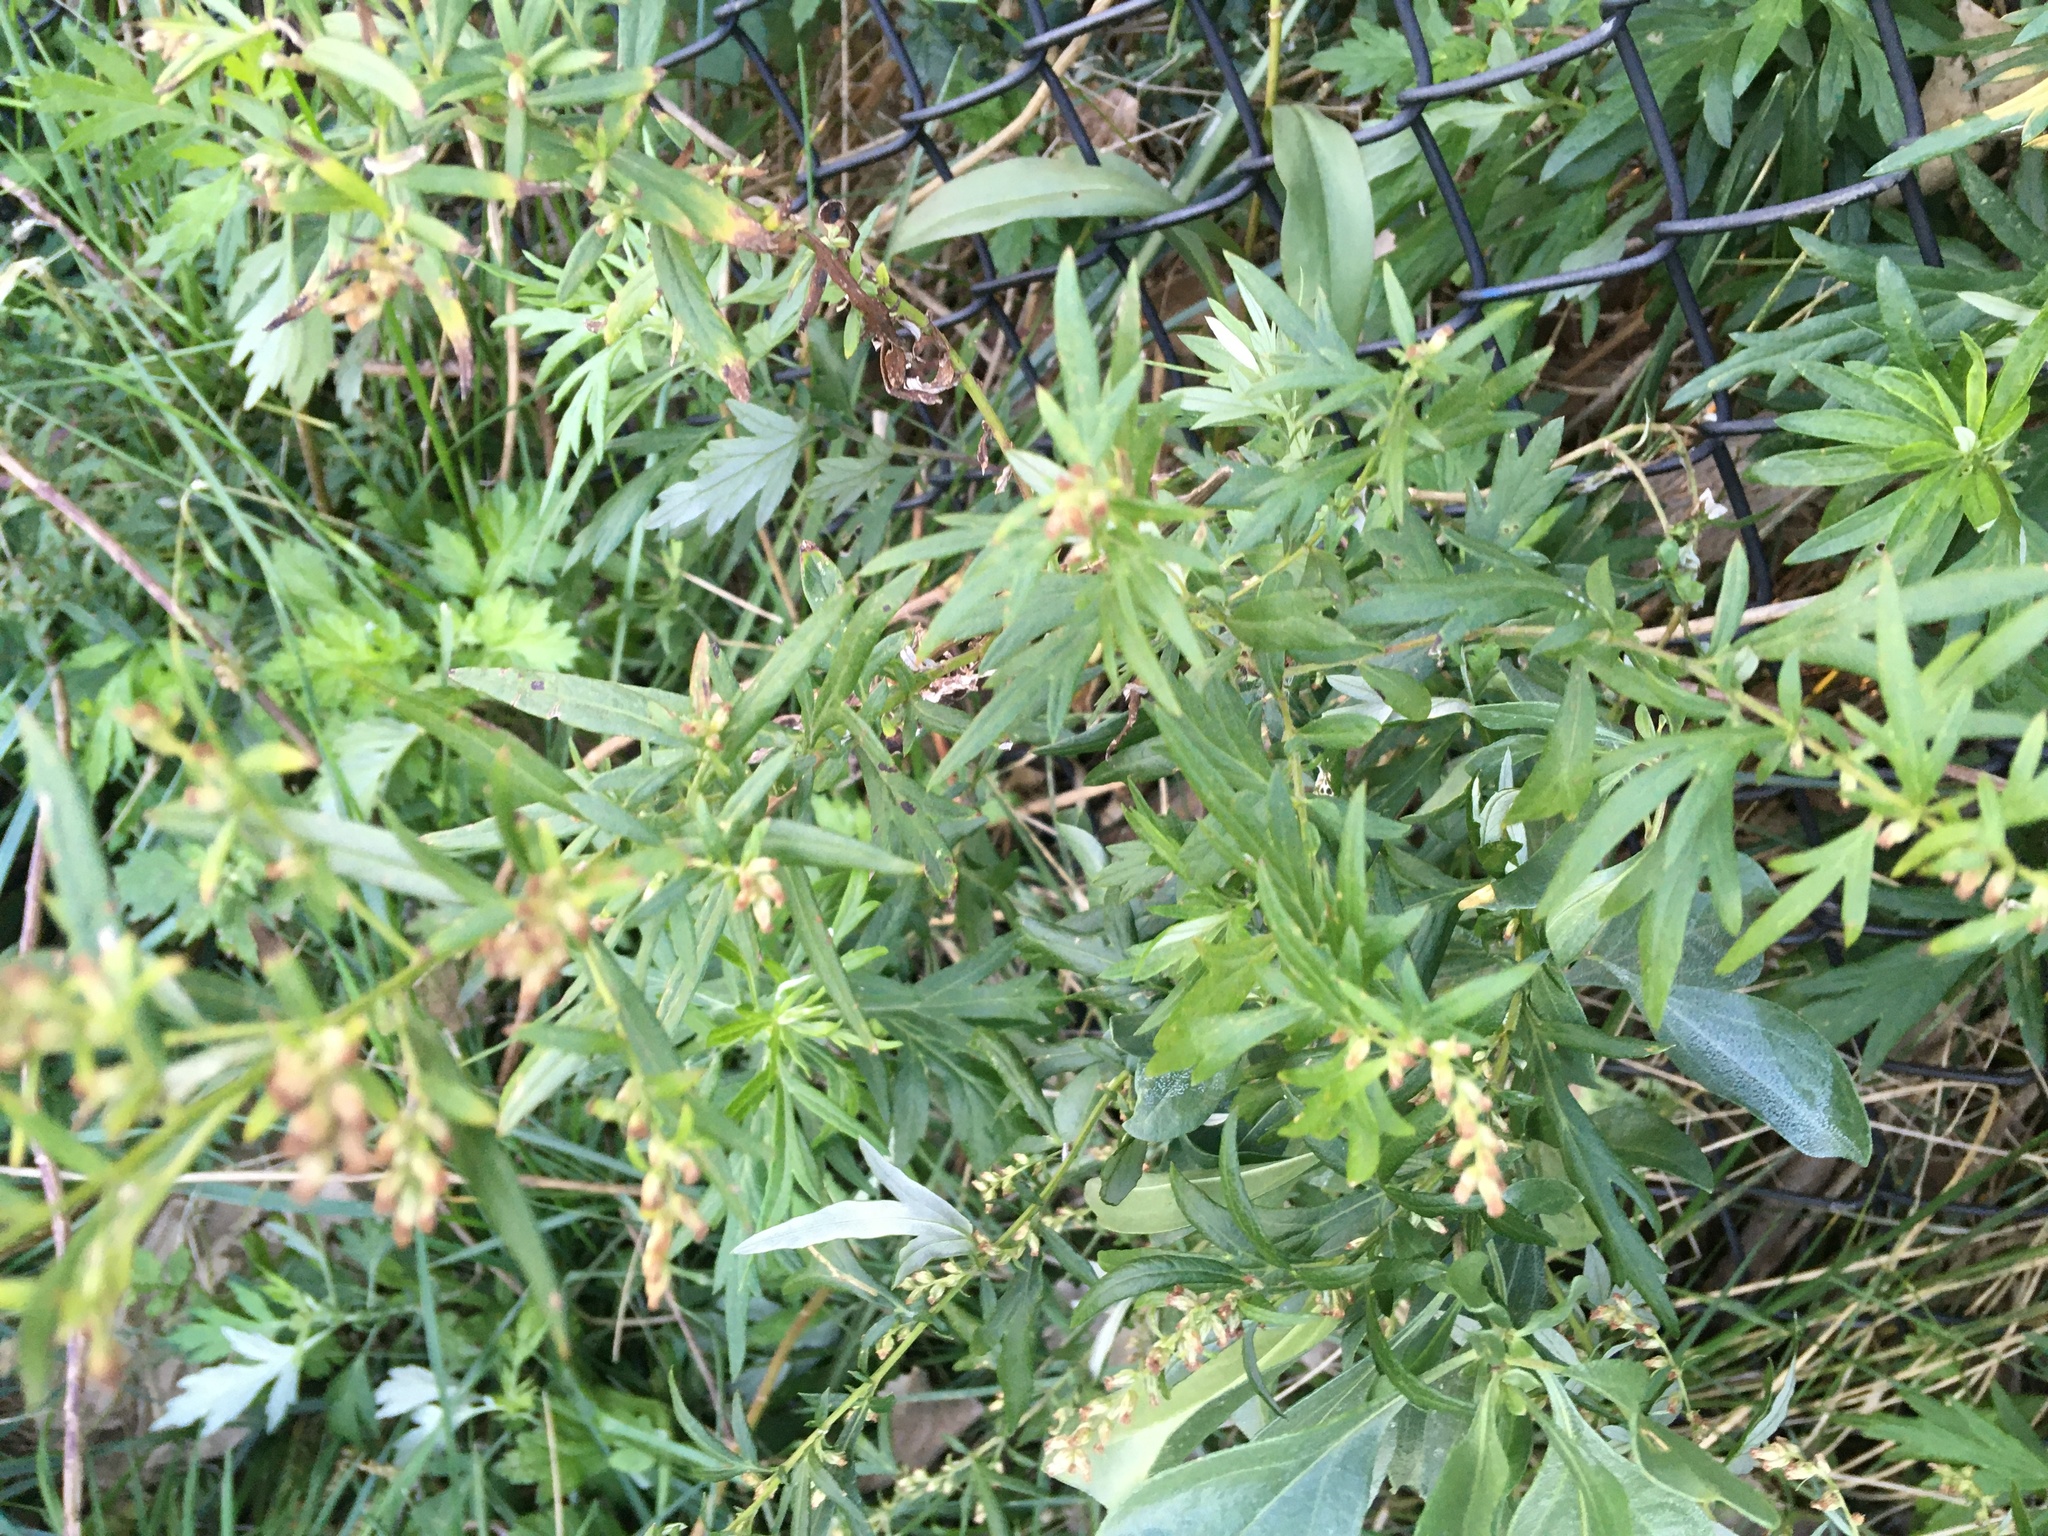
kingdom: Plantae
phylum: Tracheophyta
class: Magnoliopsida
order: Asterales
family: Asteraceae
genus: Artemisia
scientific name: Artemisia vulgaris
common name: Mugwort
